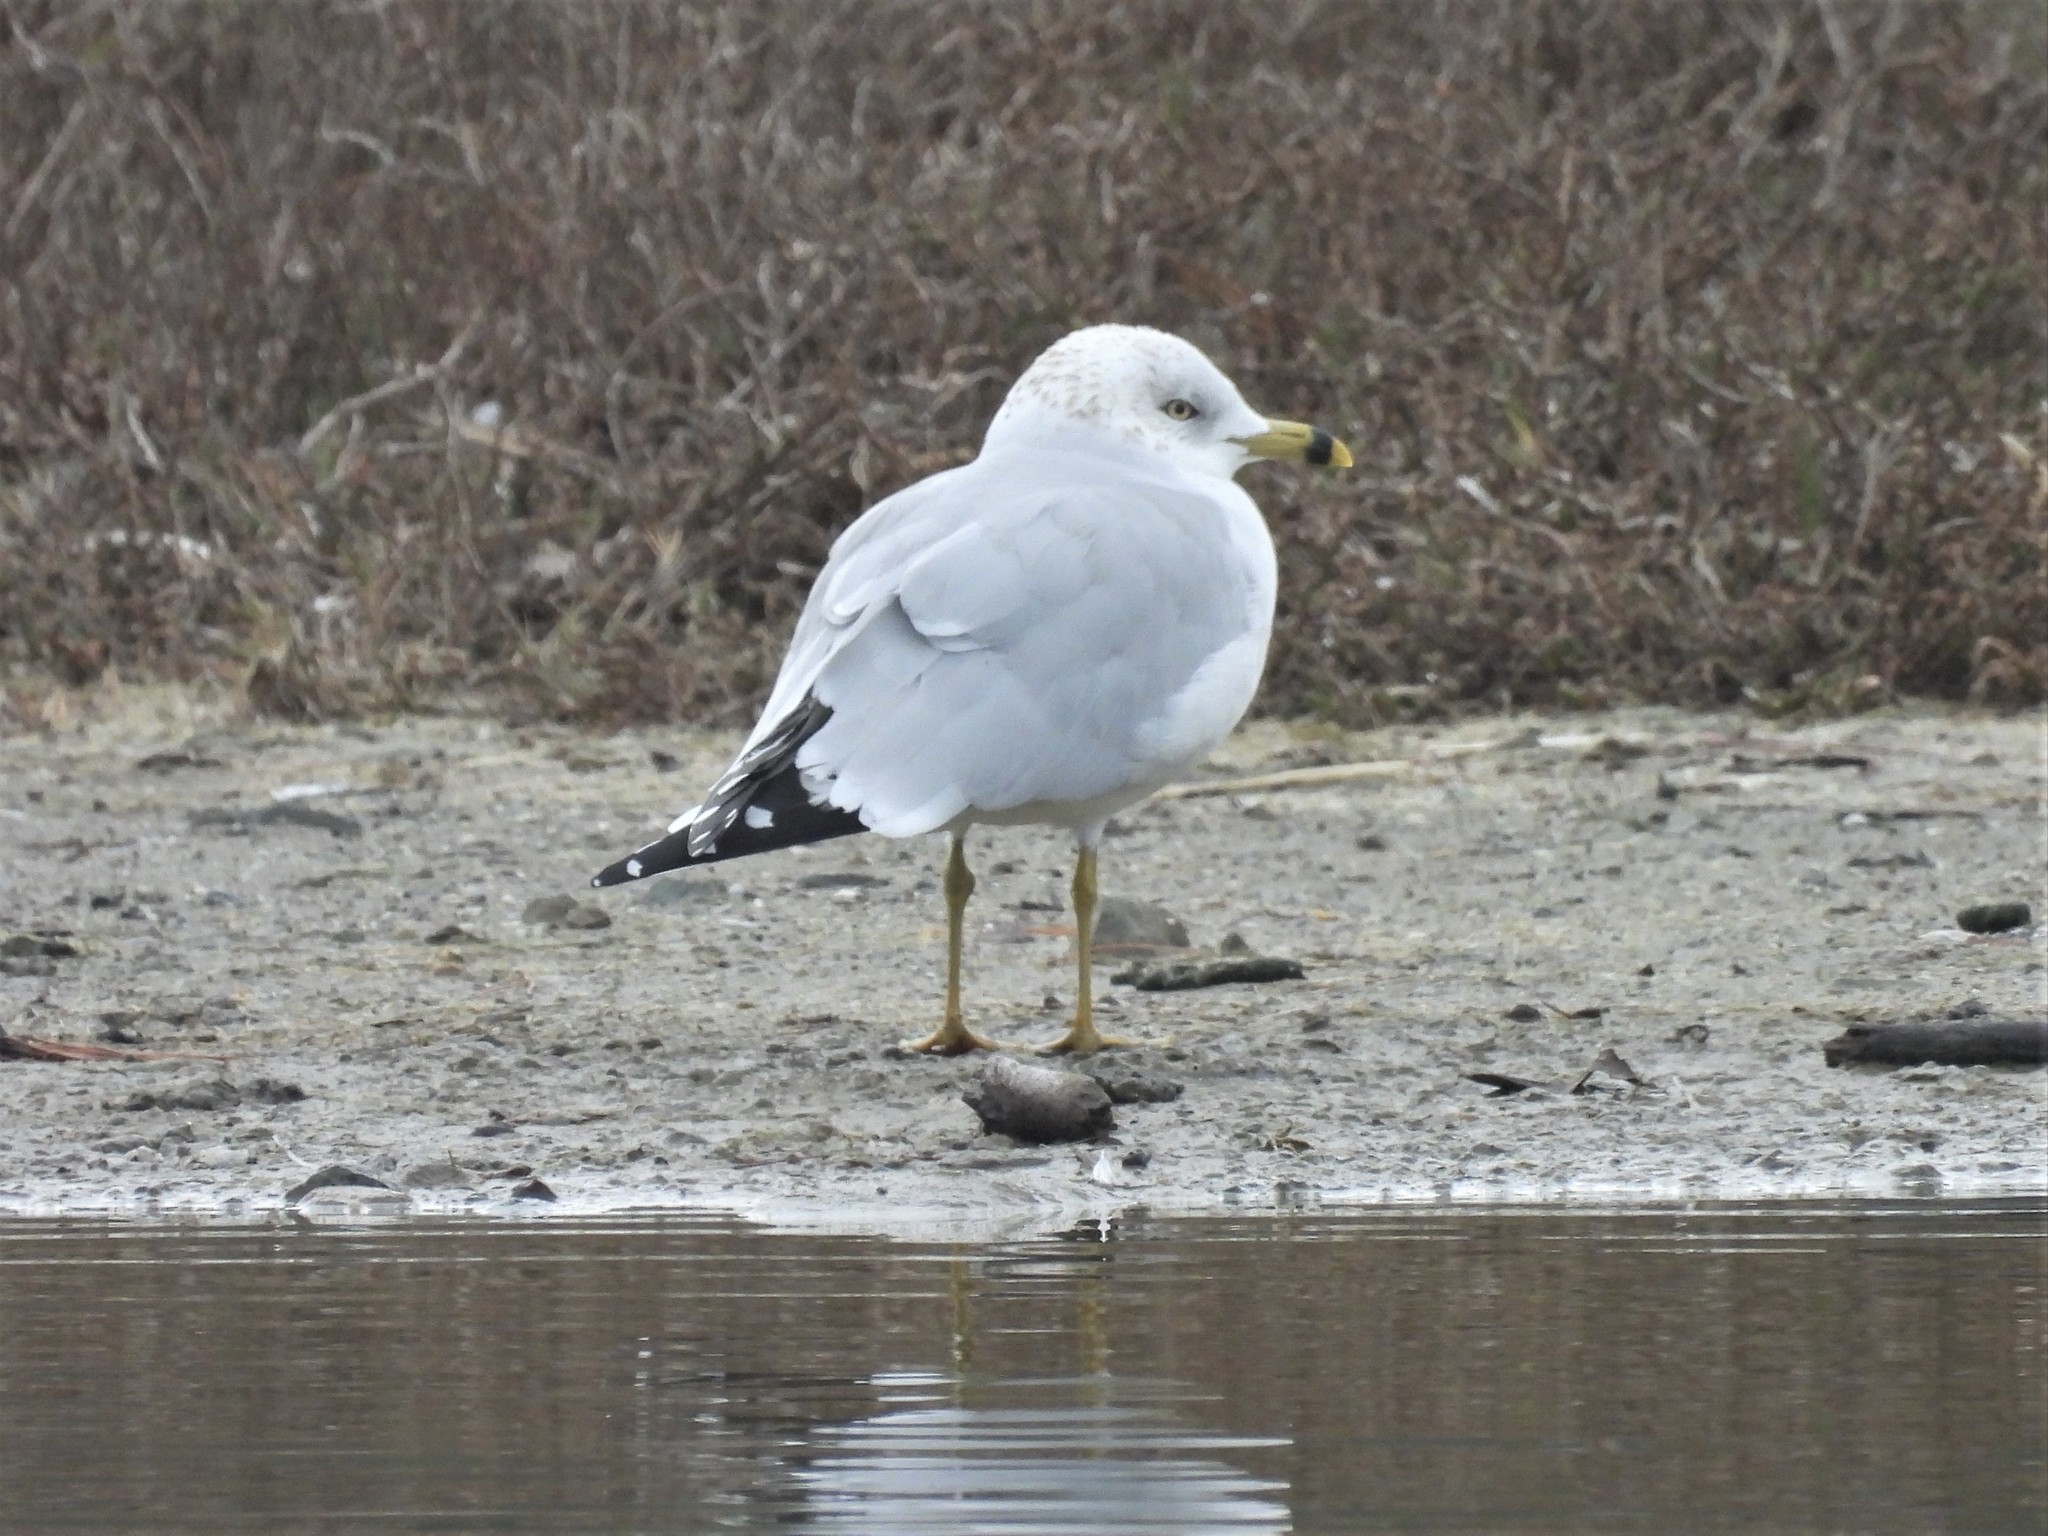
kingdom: Animalia
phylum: Chordata
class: Aves
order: Charadriiformes
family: Laridae
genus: Larus
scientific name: Larus delawarensis
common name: Ring-billed gull
